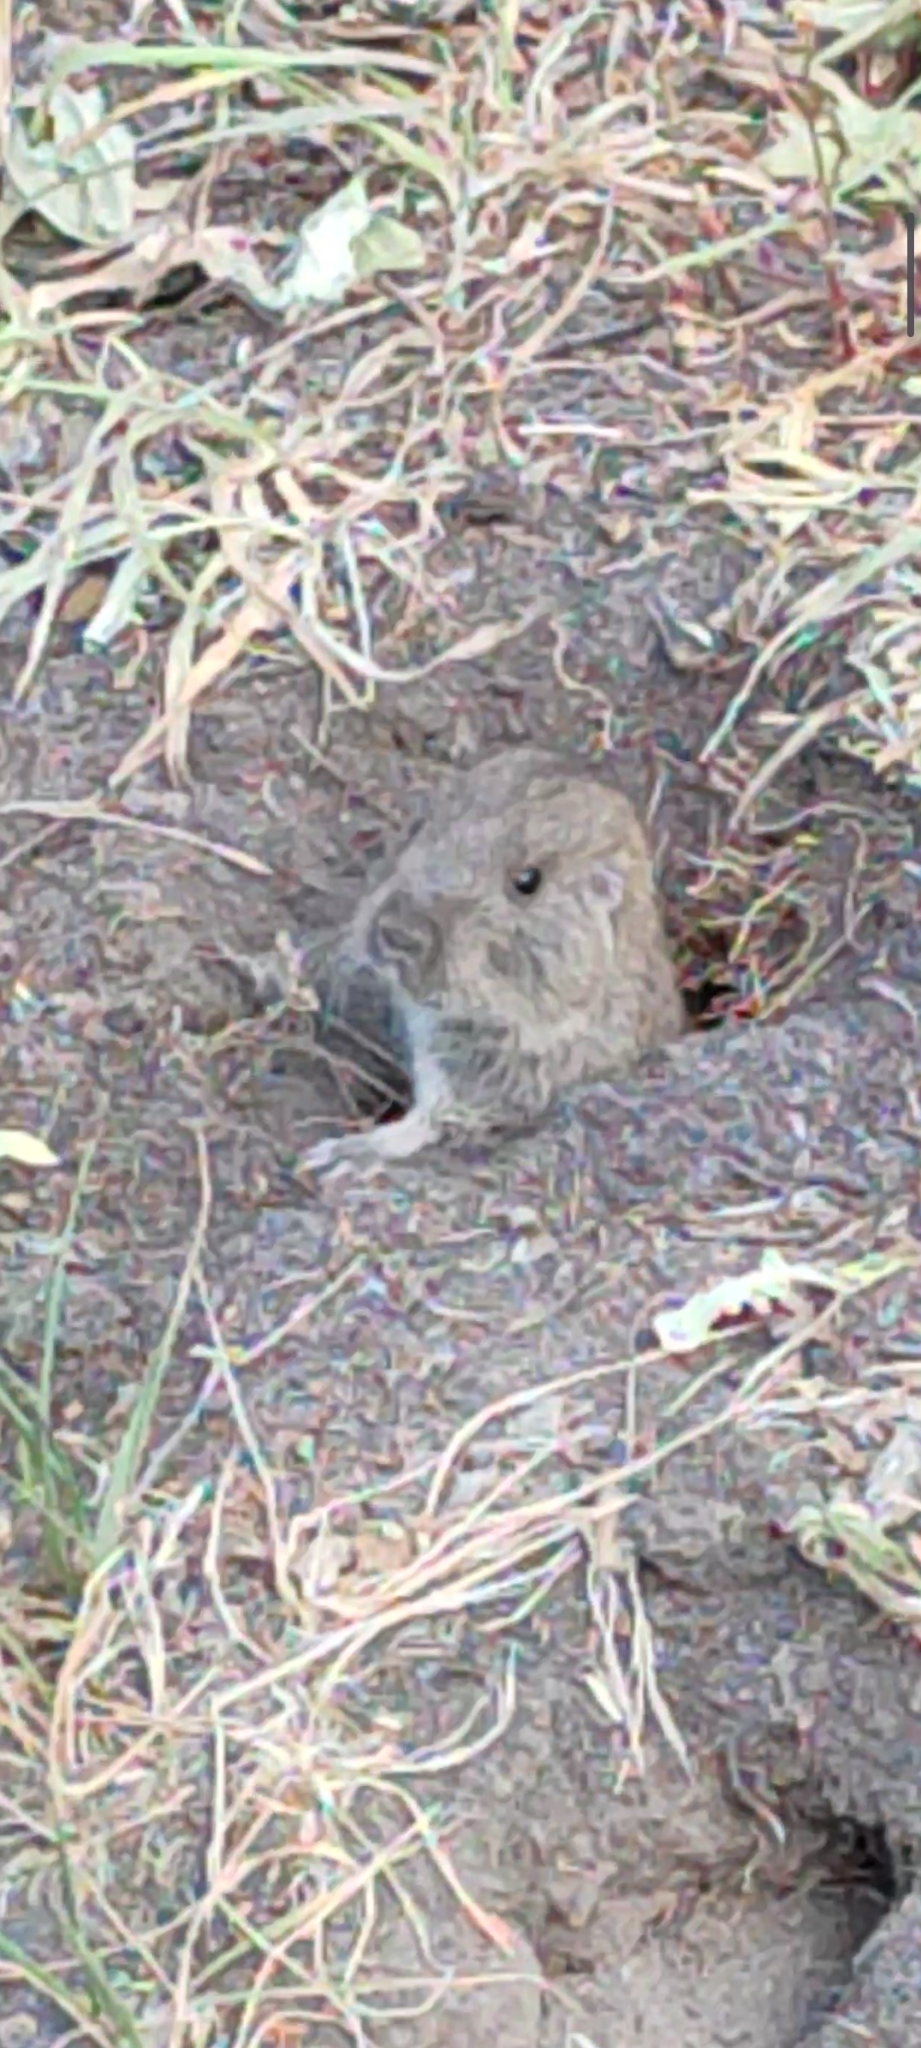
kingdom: Animalia
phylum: Chordata
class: Mammalia
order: Rodentia
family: Ctenomyidae
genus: Ctenomys
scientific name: Ctenomys maulinus
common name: Maule tuco-tuco
